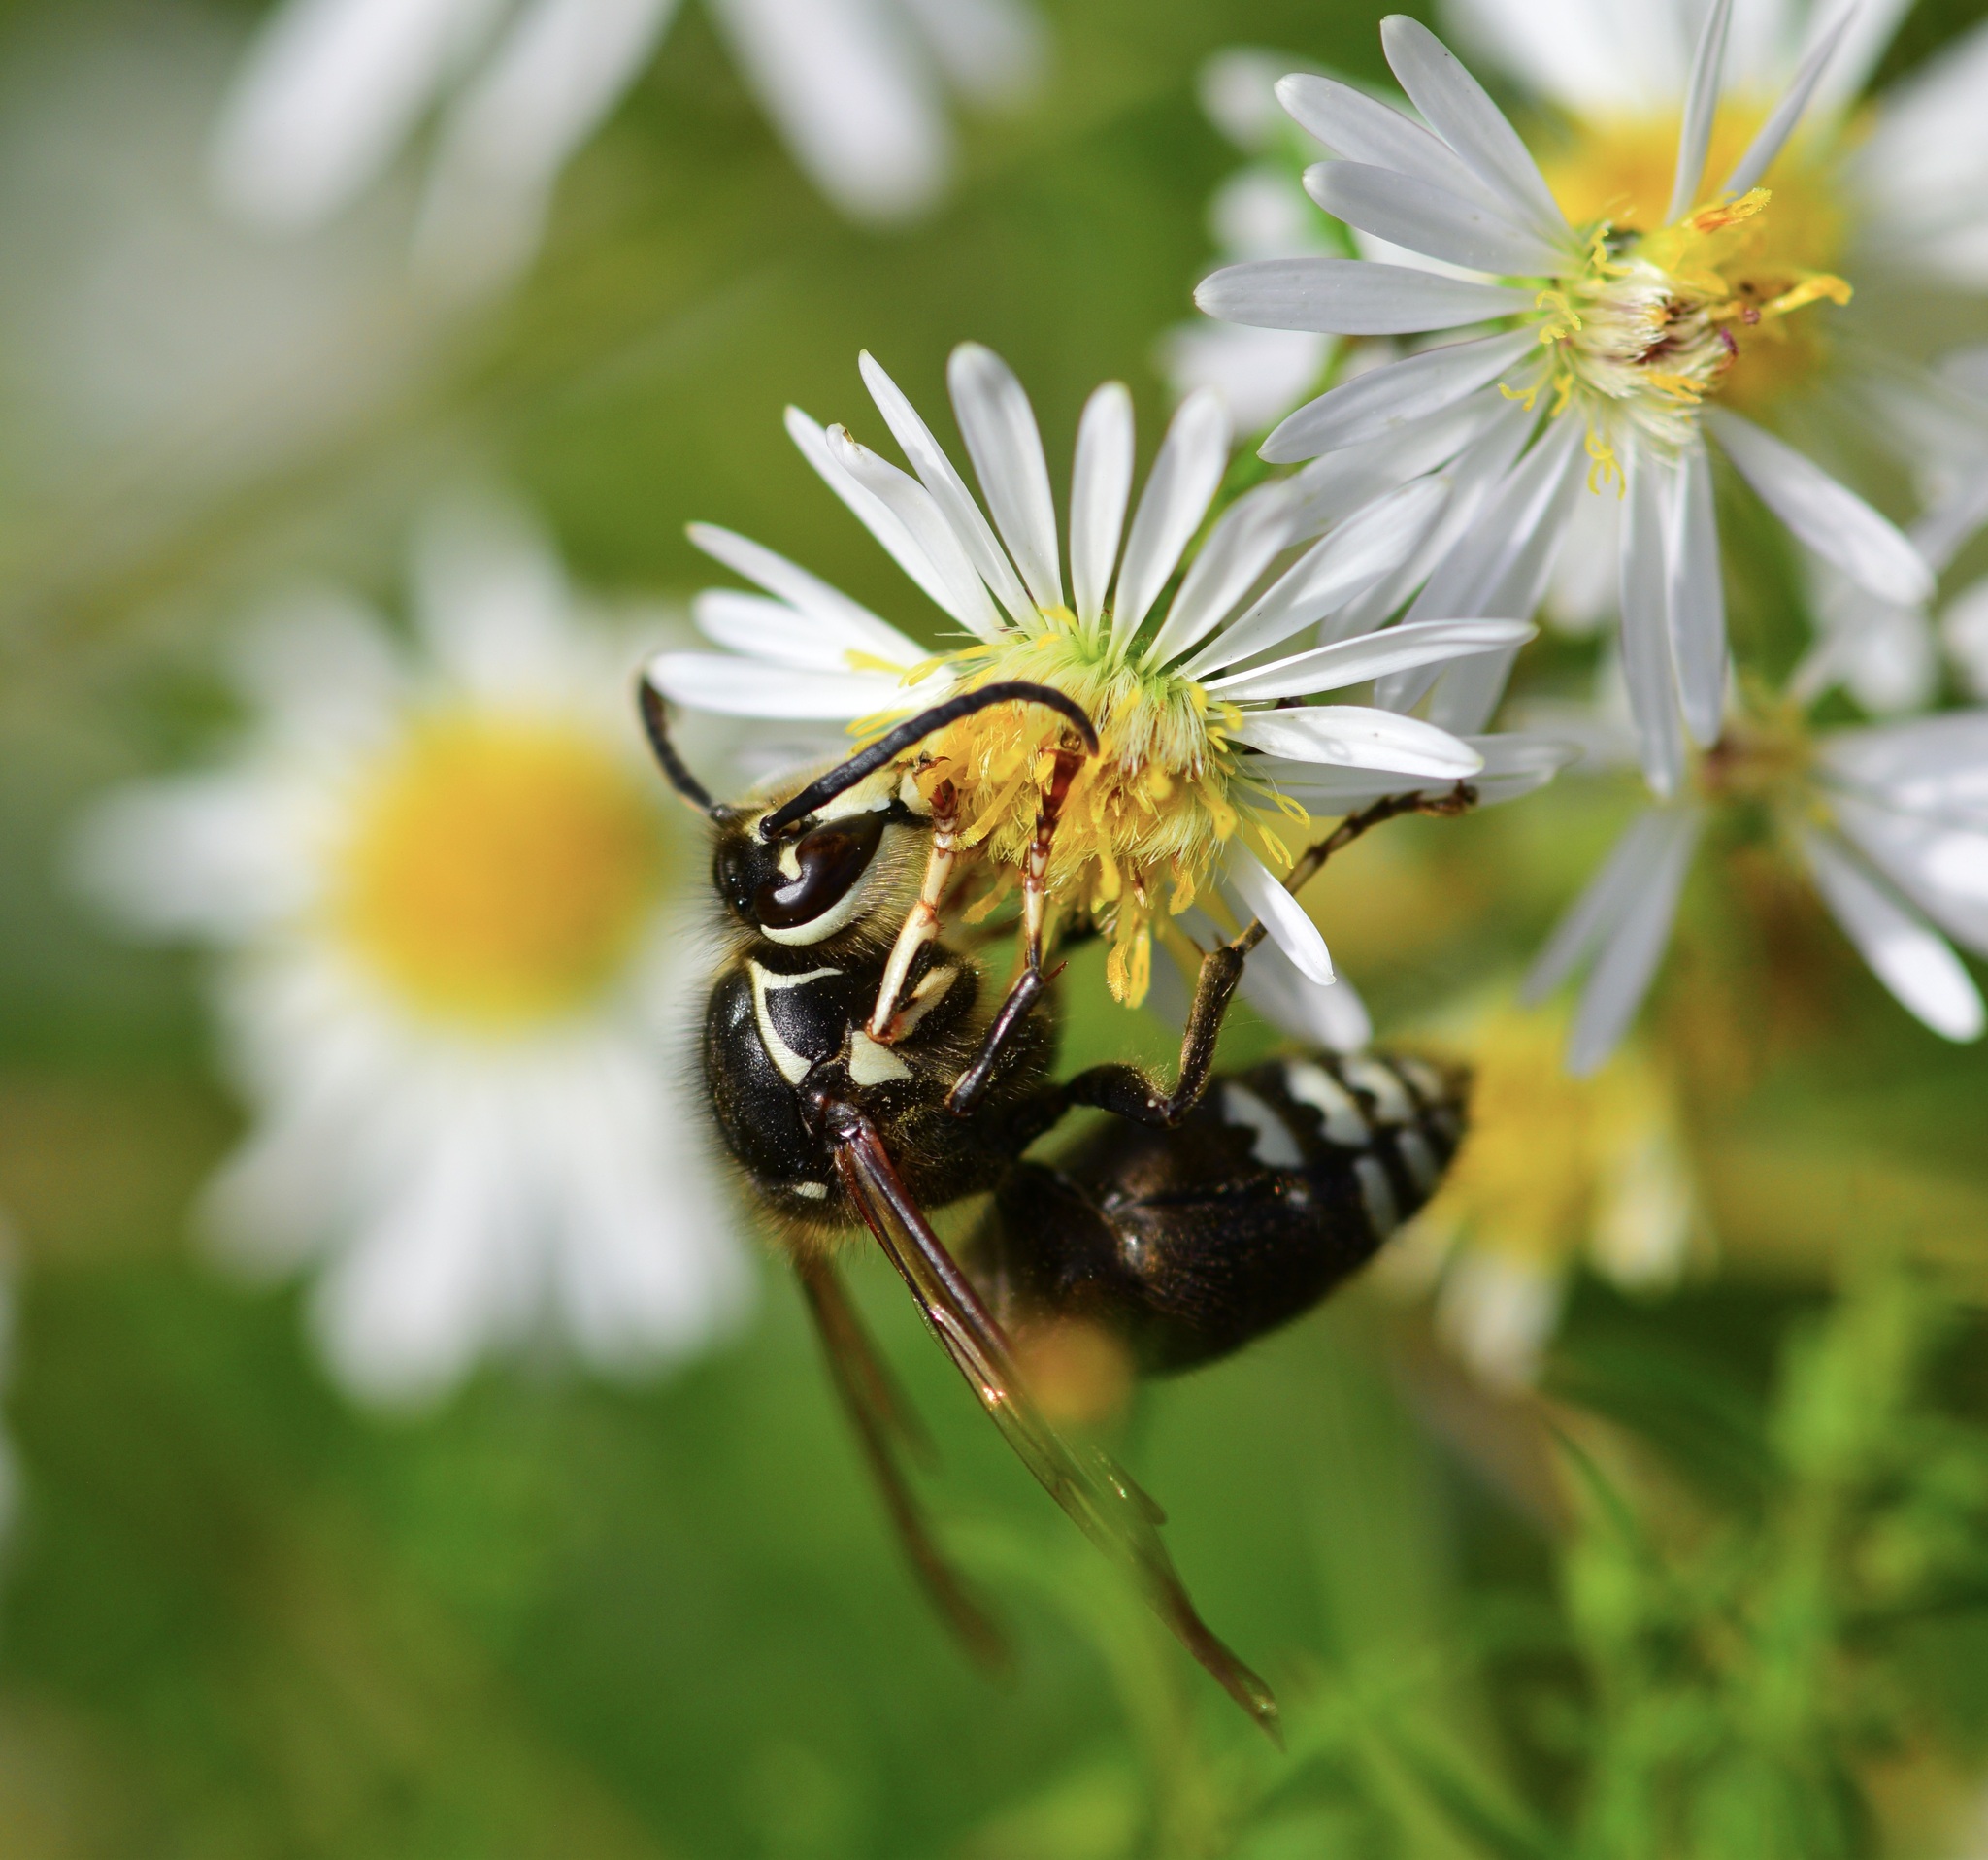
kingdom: Animalia
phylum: Arthropoda
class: Insecta
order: Hymenoptera
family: Vespidae
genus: Dolichovespula
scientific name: Dolichovespula maculata
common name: Bald-faced hornet
